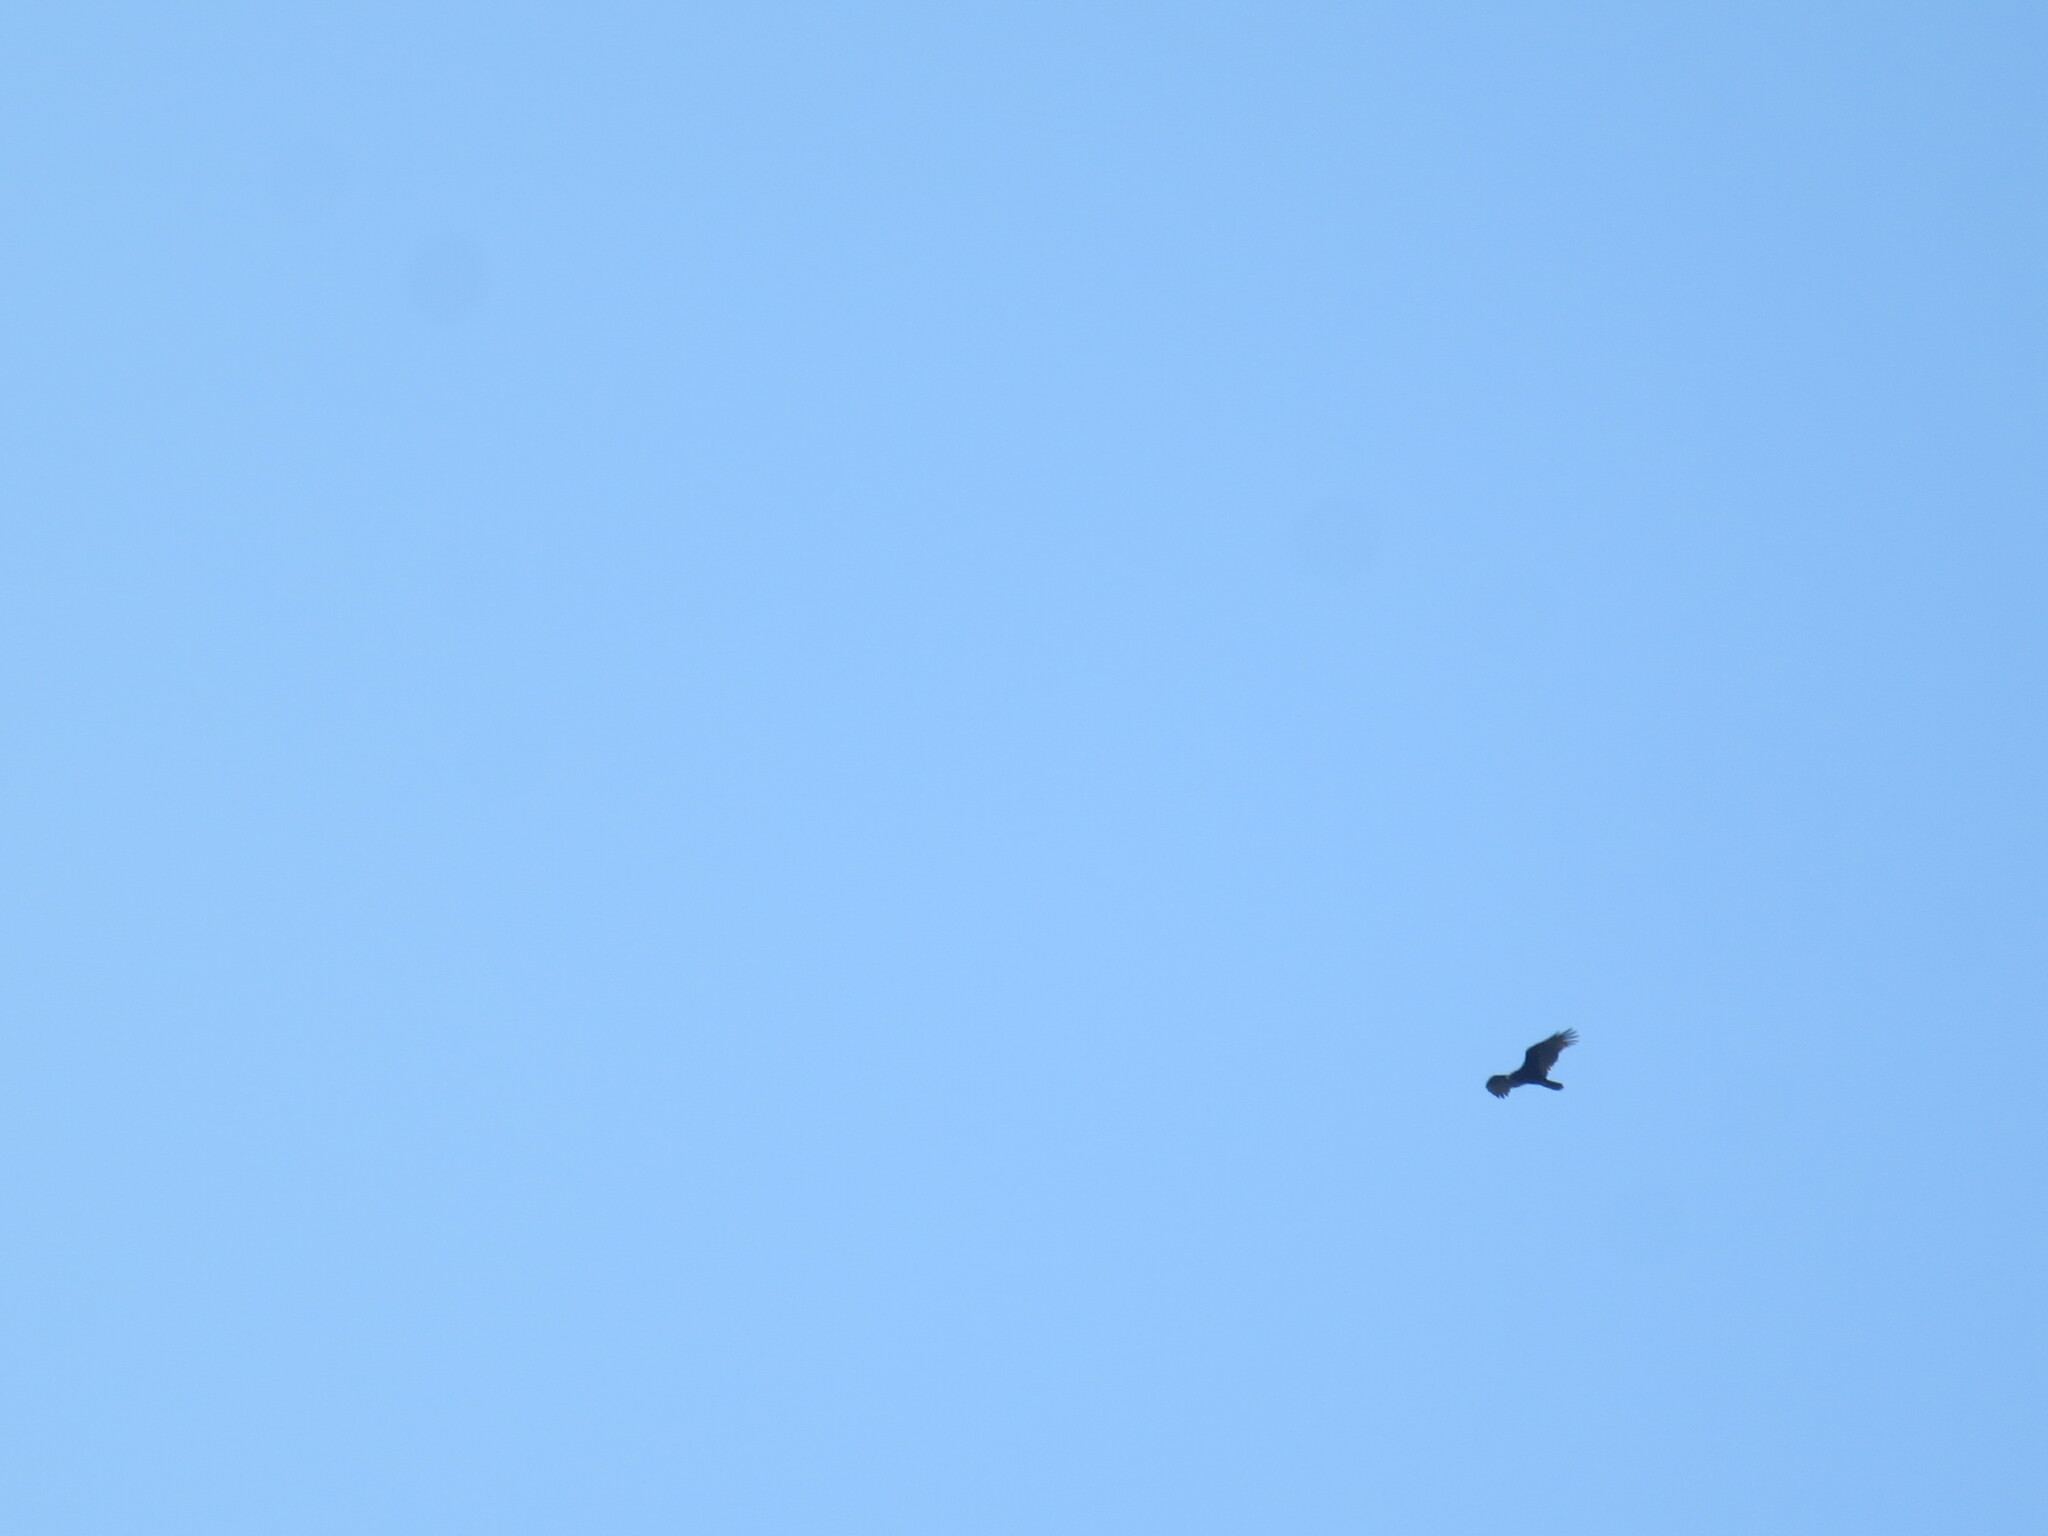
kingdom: Animalia
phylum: Chordata
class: Aves
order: Accipitriformes
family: Cathartidae
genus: Cathartes
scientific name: Cathartes aura
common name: Turkey vulture
